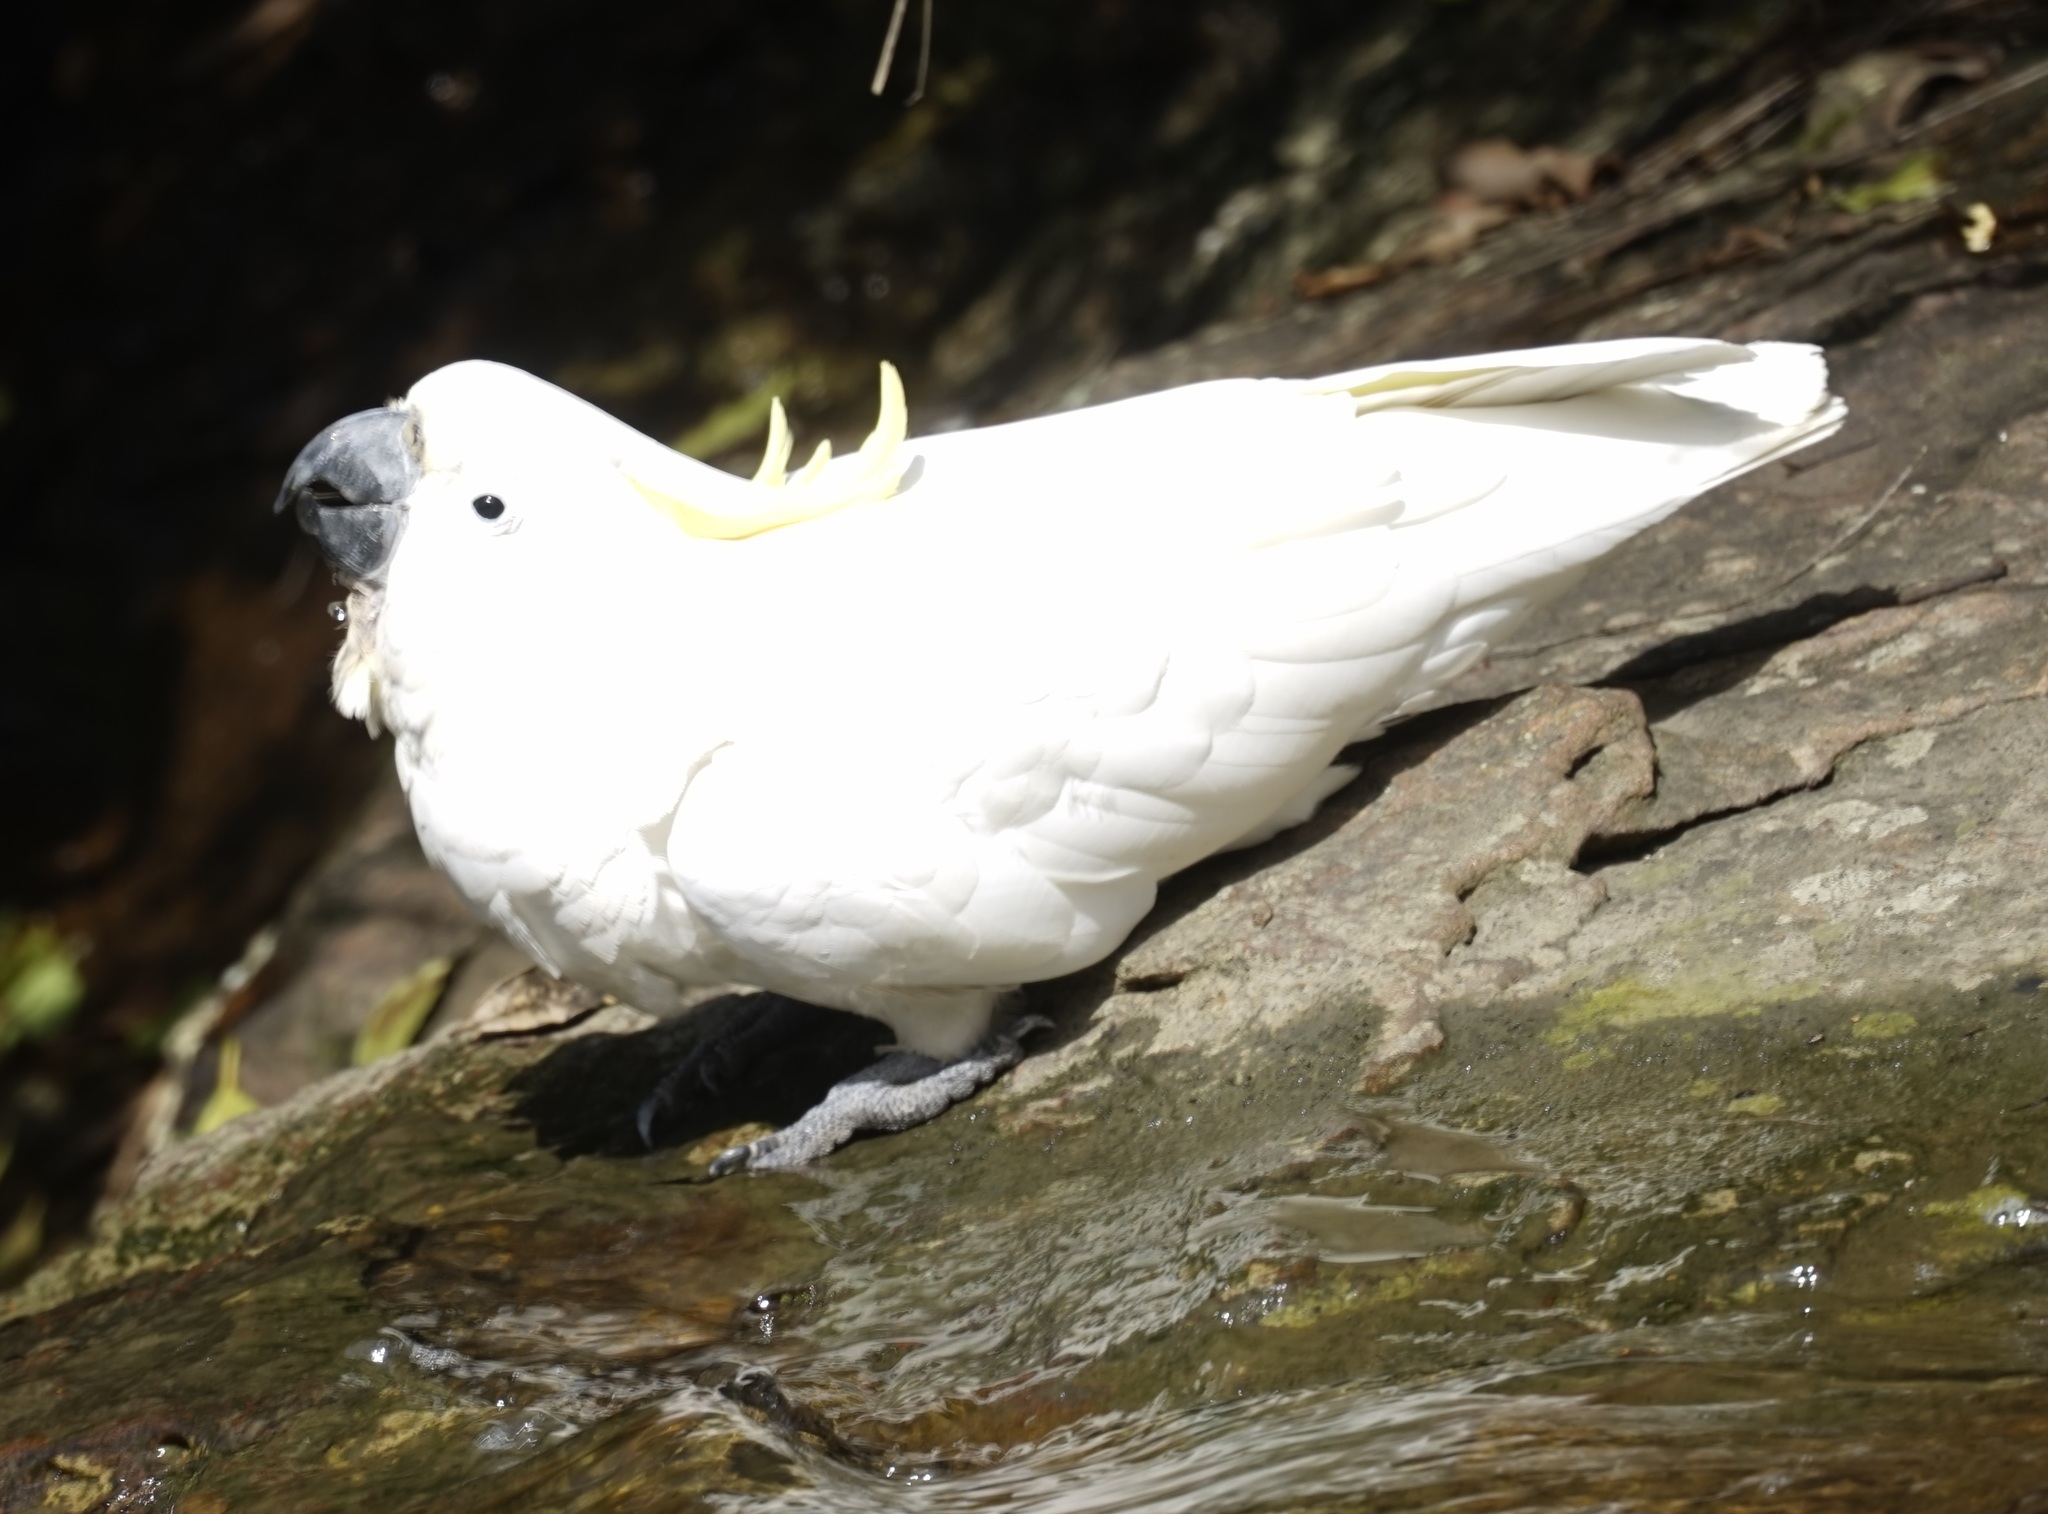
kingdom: Animalia
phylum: Chordata
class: Aves
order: Psittaciformes
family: Psittacidae
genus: Cacatua
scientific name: Cacatua galerita
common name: Sulphur-crested cockatoo
